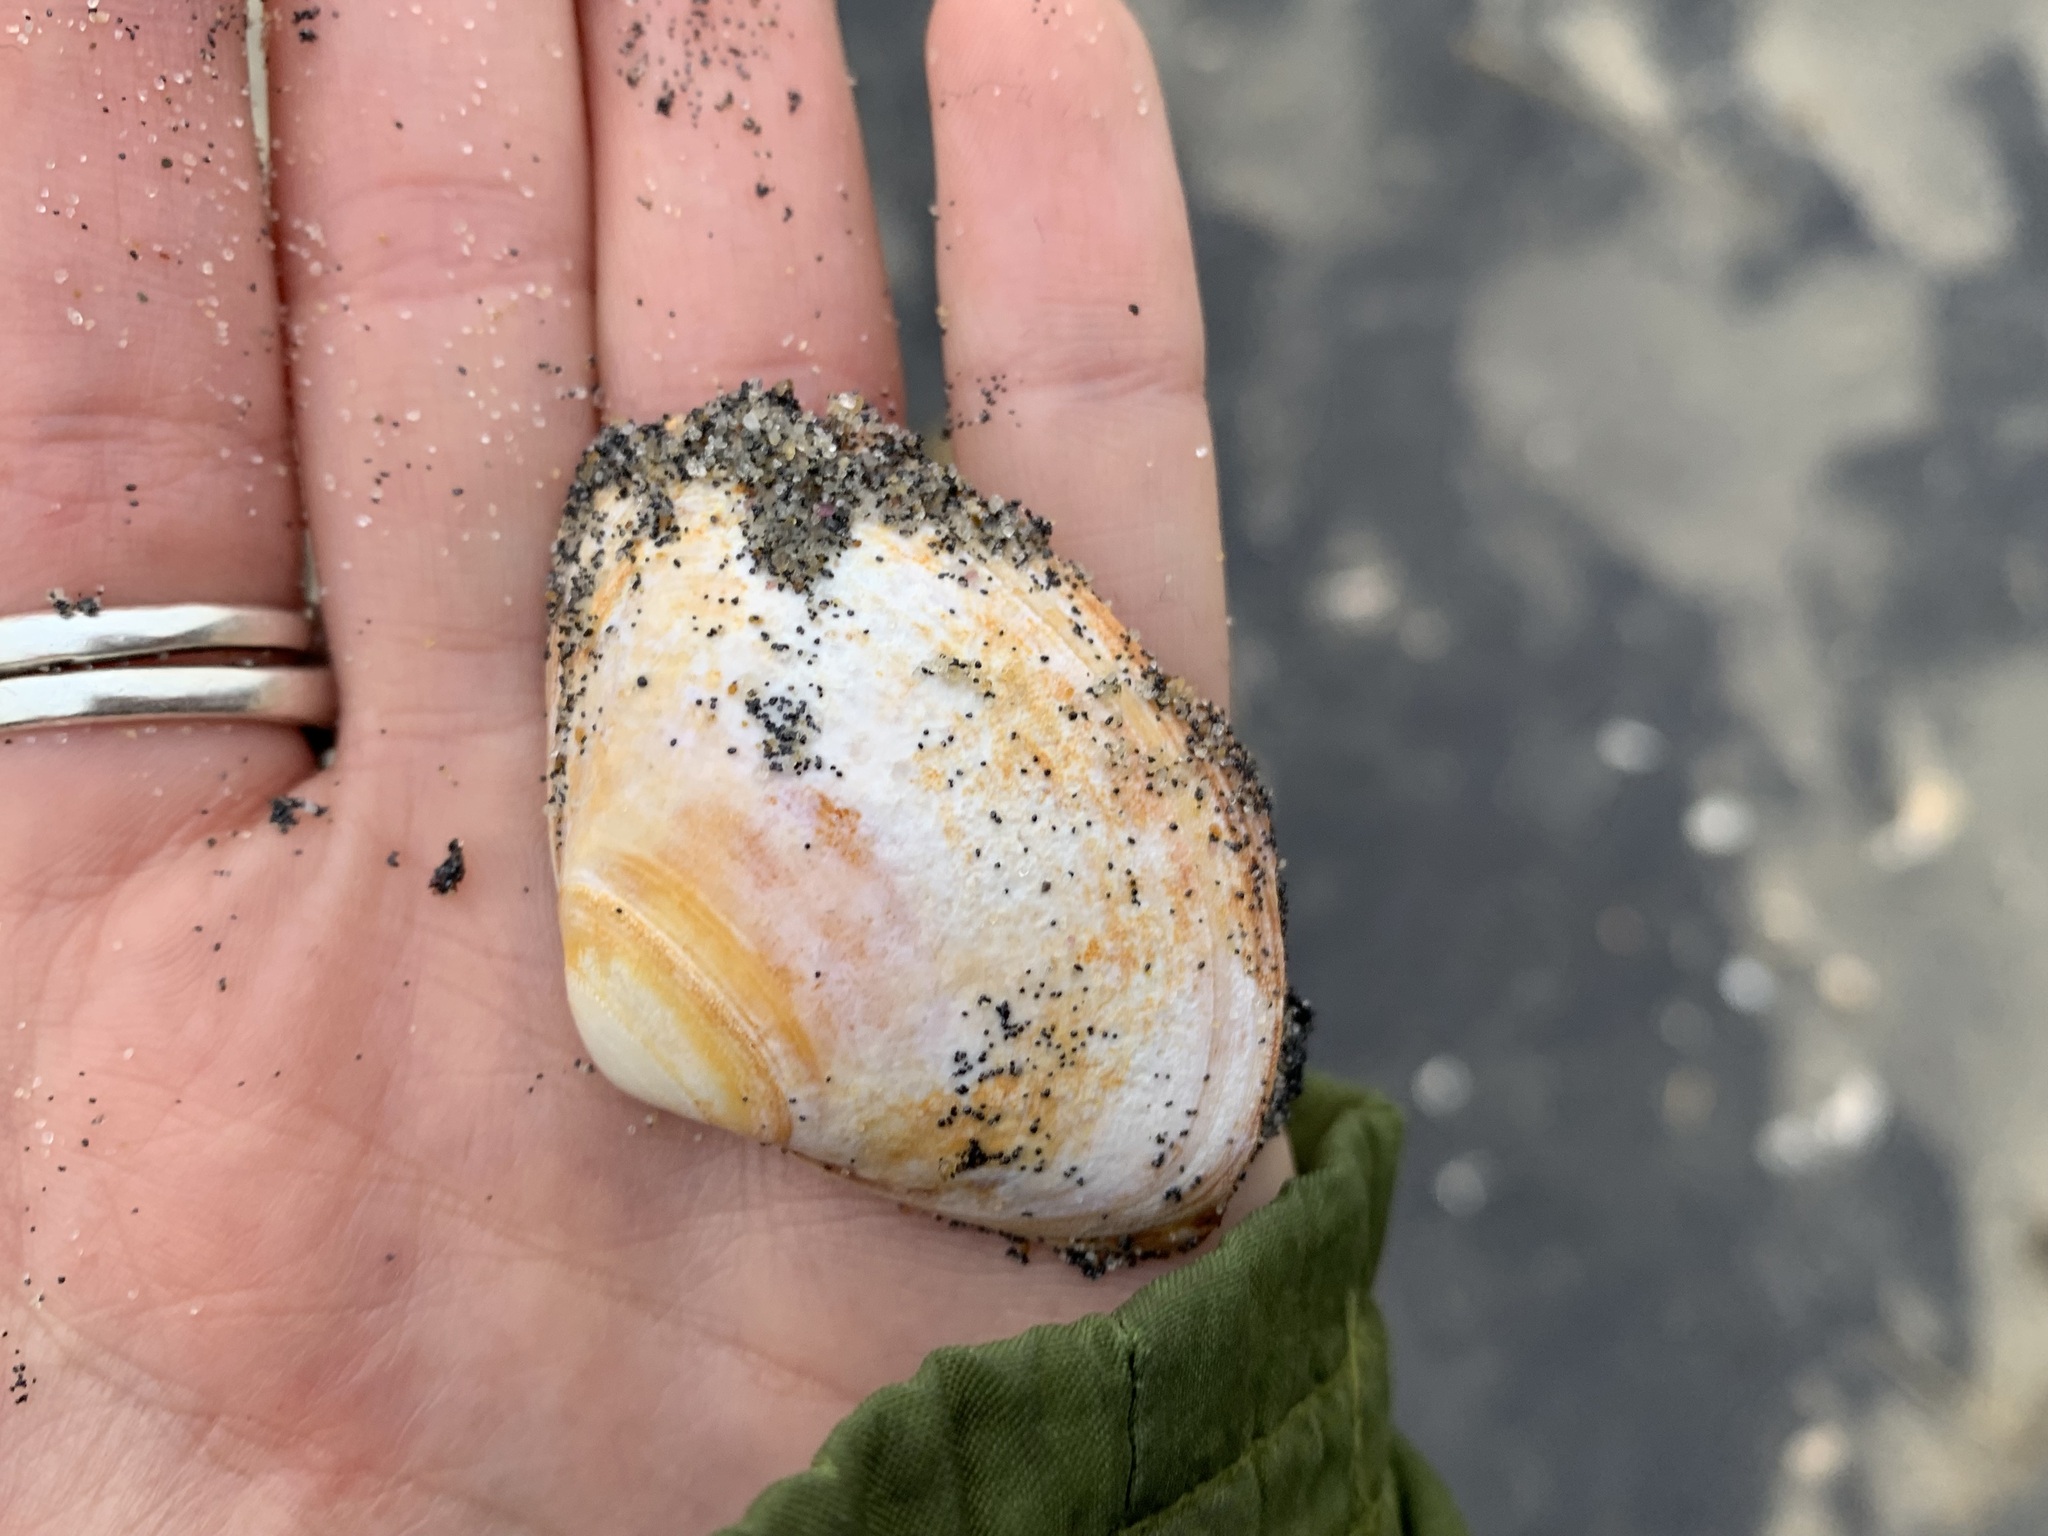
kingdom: Animalia
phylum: Mollusca
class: Bivalvia
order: Venerida
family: Mactridae
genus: Spisula
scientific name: Spisula solidissima
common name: Atlantic surf clam
